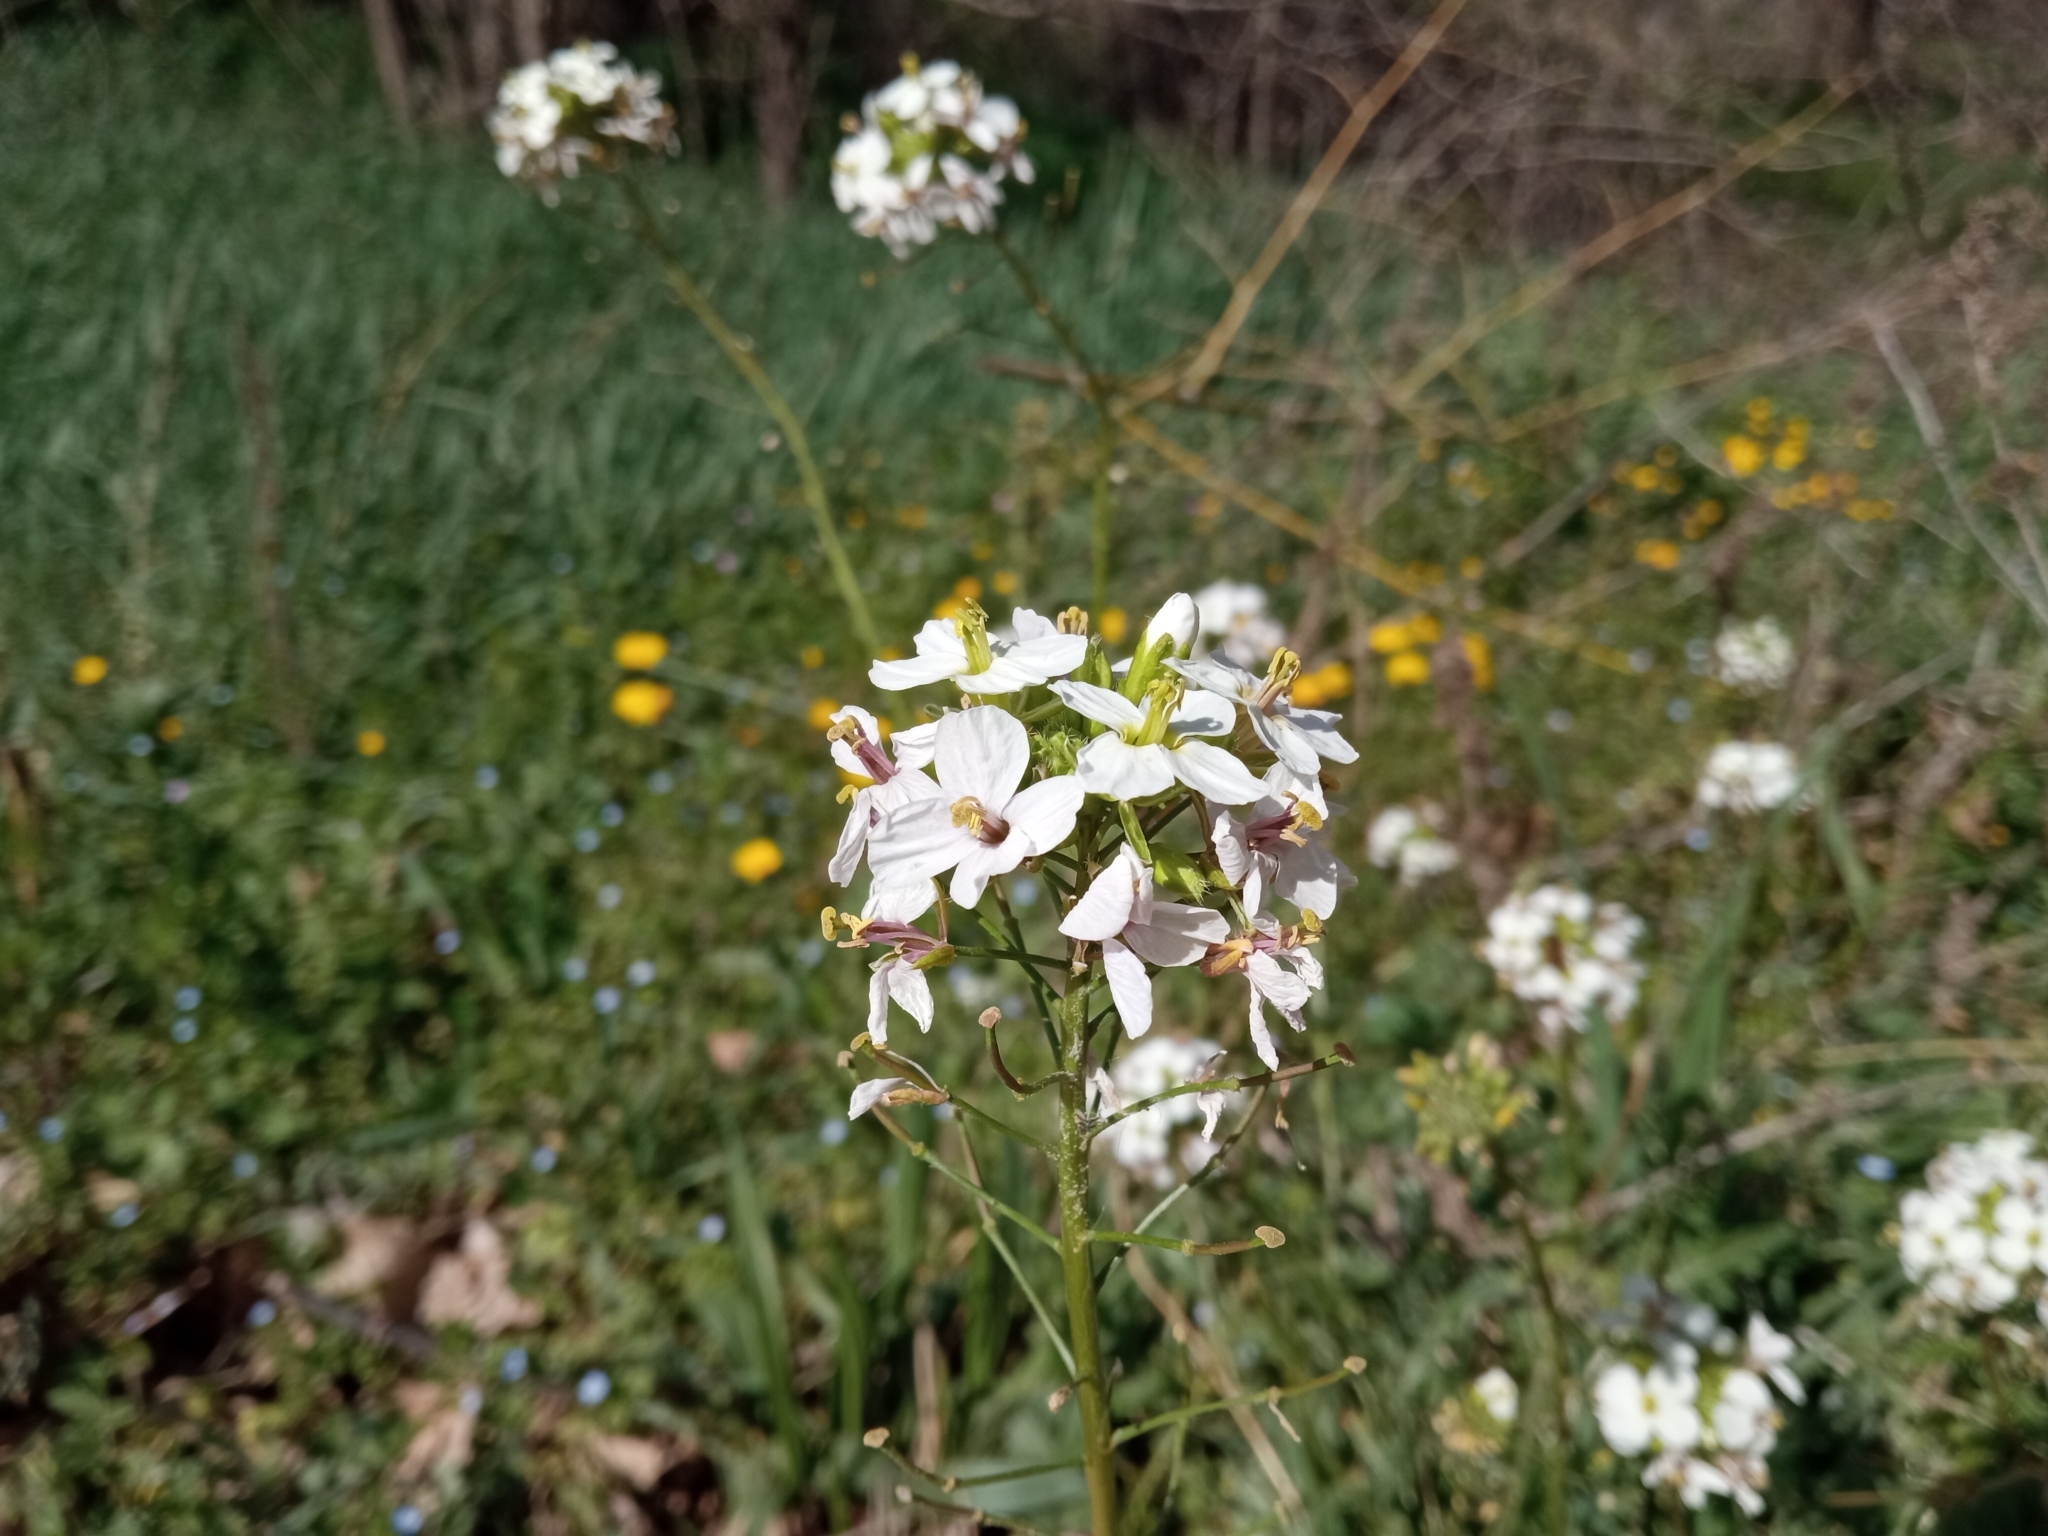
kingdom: Plantae
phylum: Tracheophyta
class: Magnoliopsida
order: Brassicales
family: Brassicaceae
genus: Diplotaxis
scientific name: Diplotaxis erucoides
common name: White rocket
